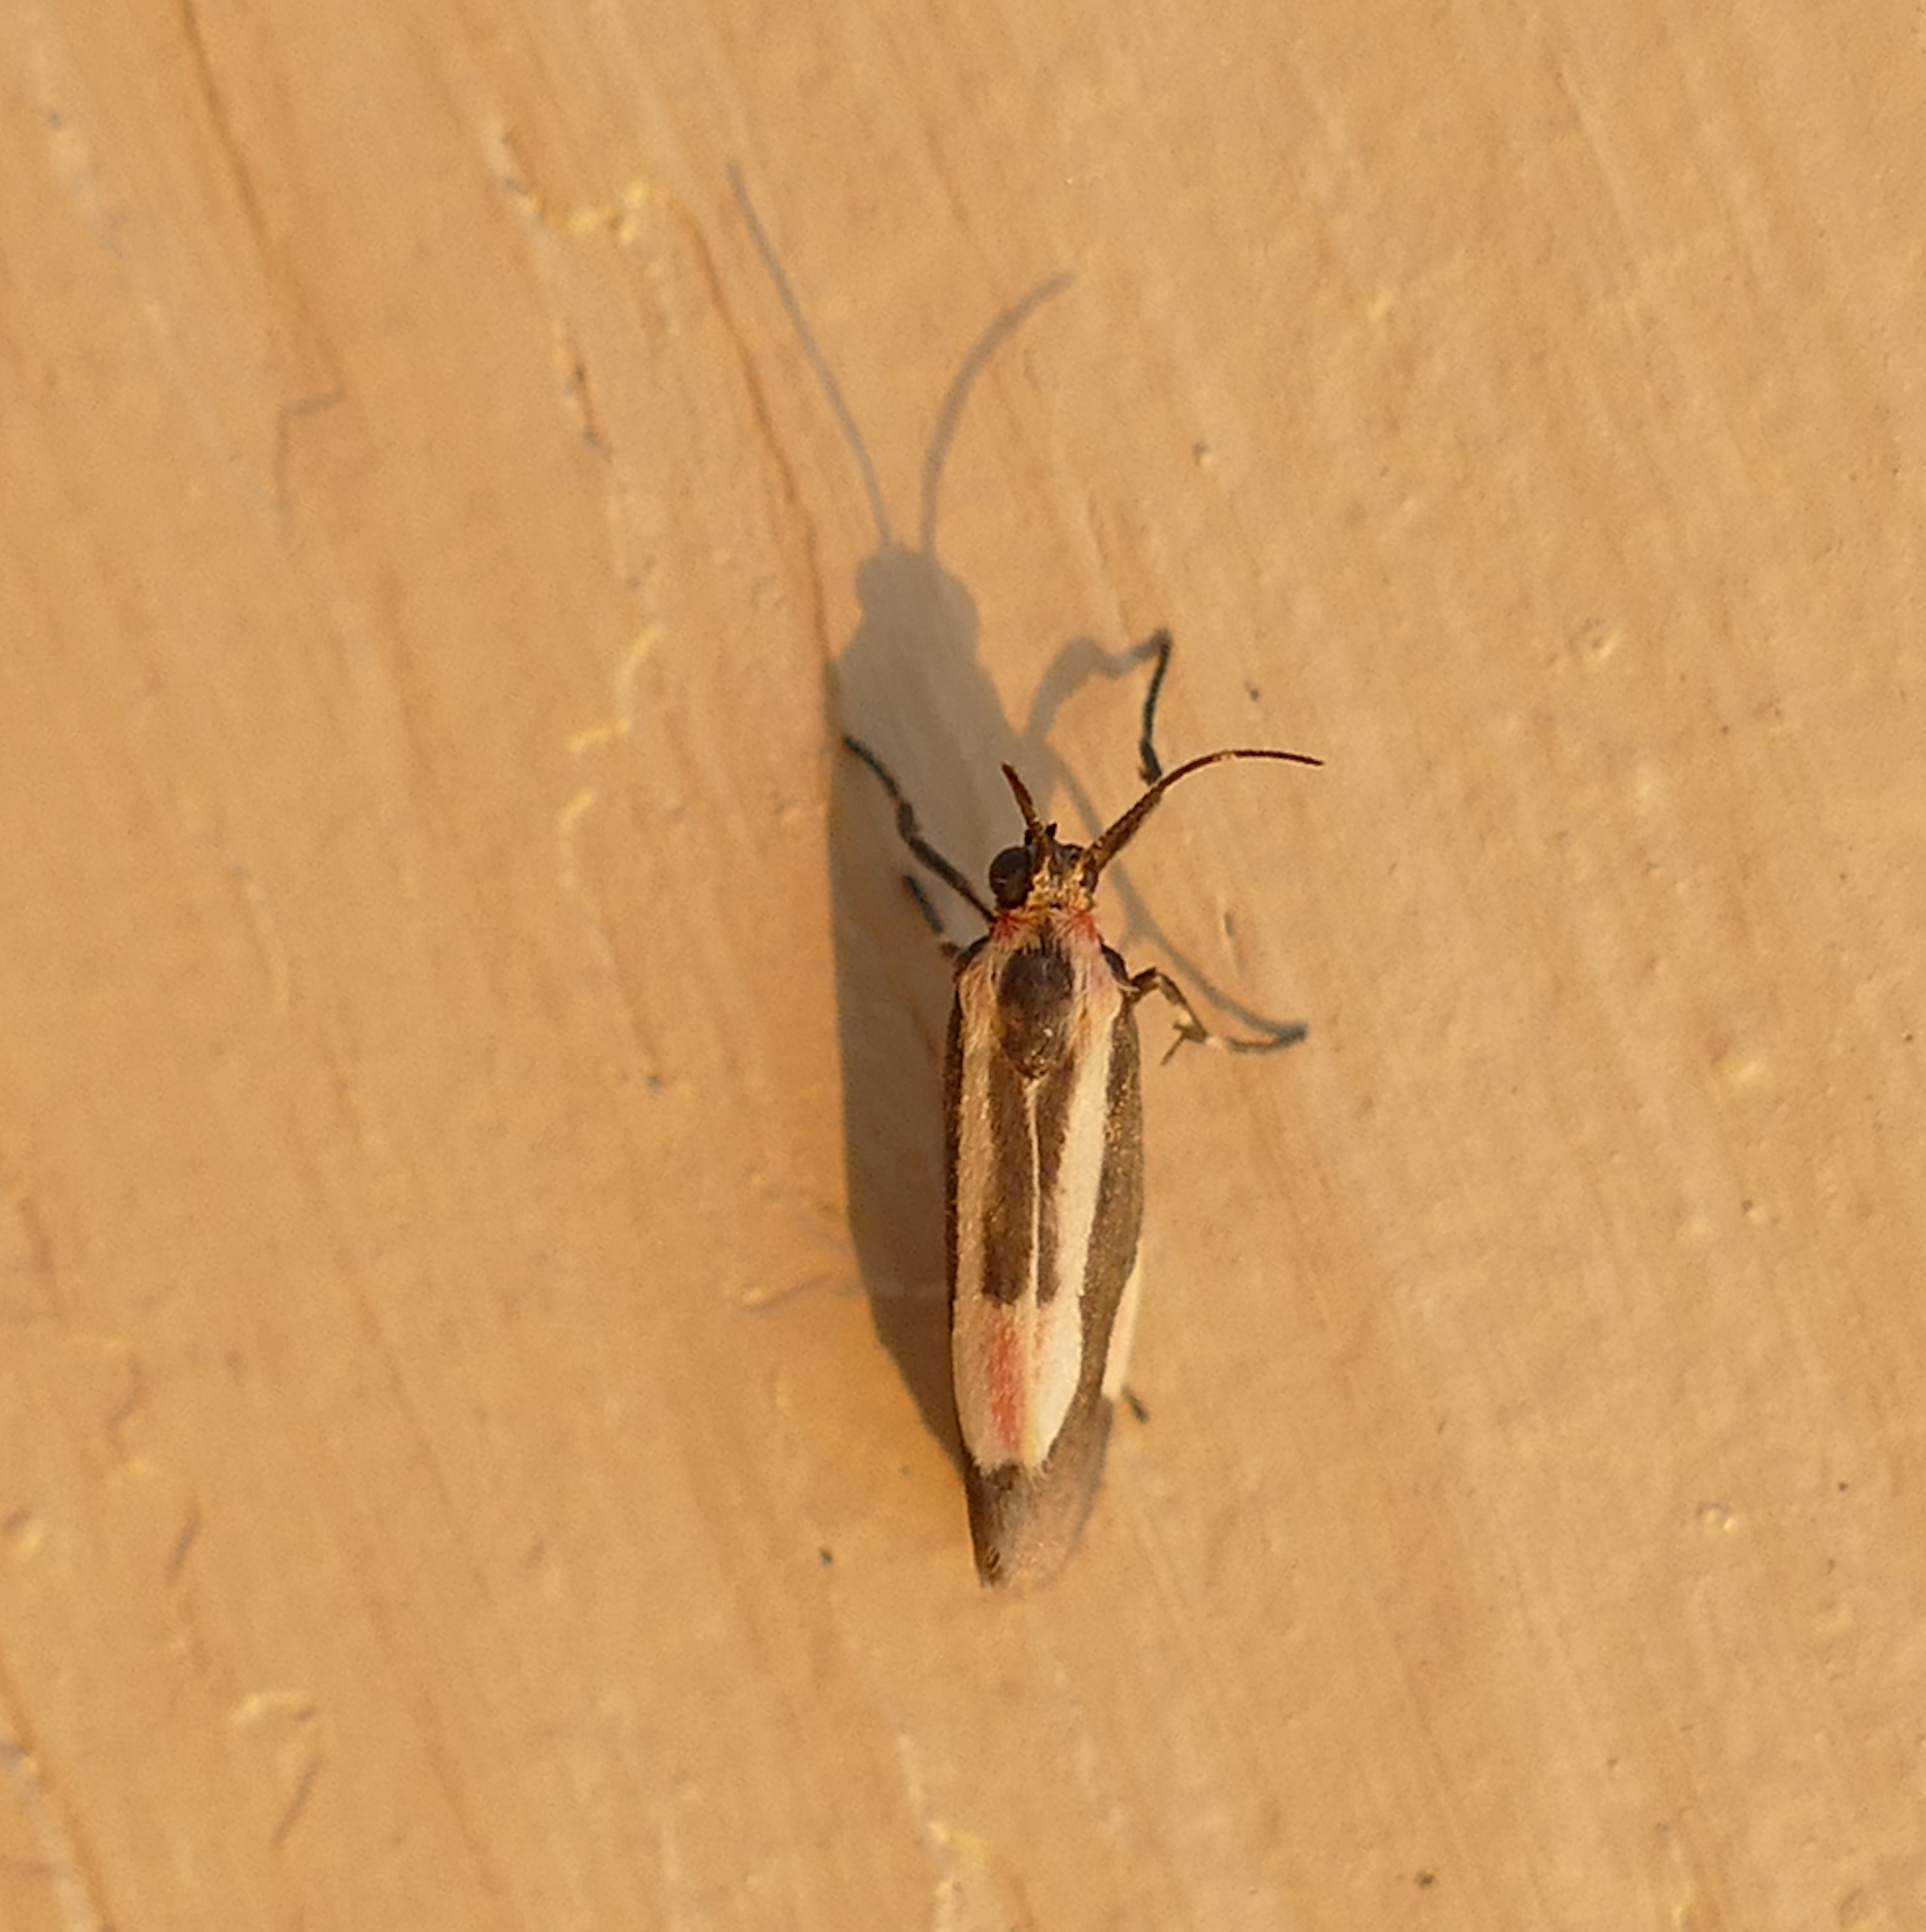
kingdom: Animalia
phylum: Arthropoda
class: Insecta
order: Lepidoptera
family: Erebidae
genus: Cisthene
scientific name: Cisthene packardii
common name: Packard's lichen moth
